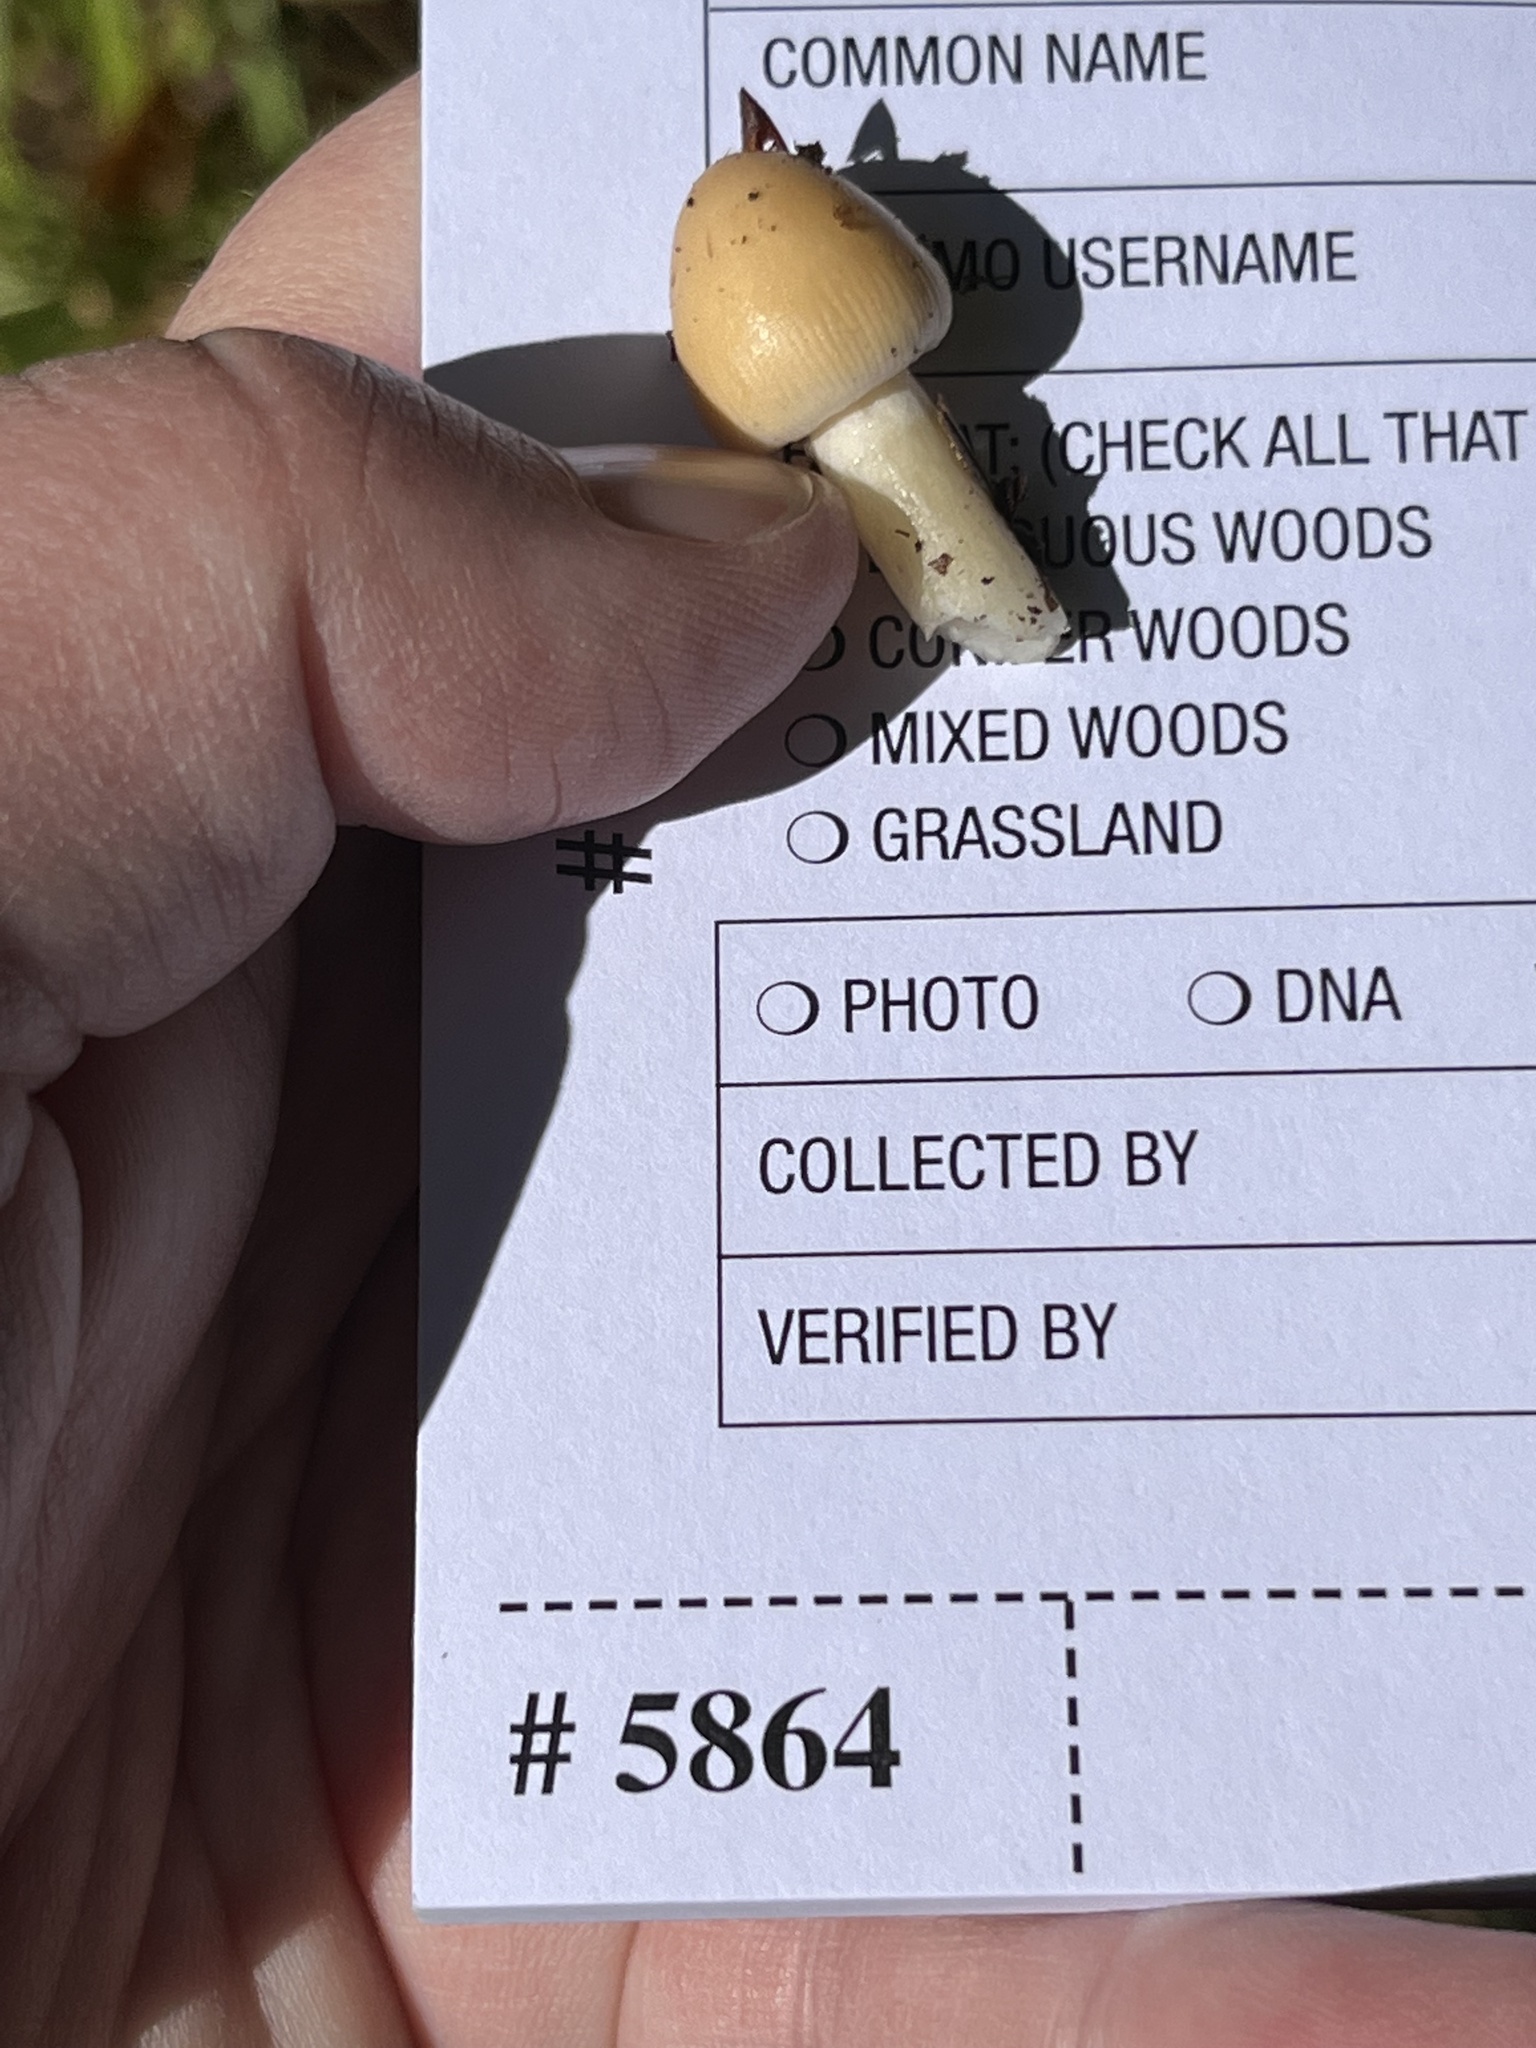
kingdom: Fungi
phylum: Basidiomycota
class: Agaricomycetes
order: Agaricales
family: Amanitaceae
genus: Amanita
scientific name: Amanita fulva
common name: Tawny grisette
